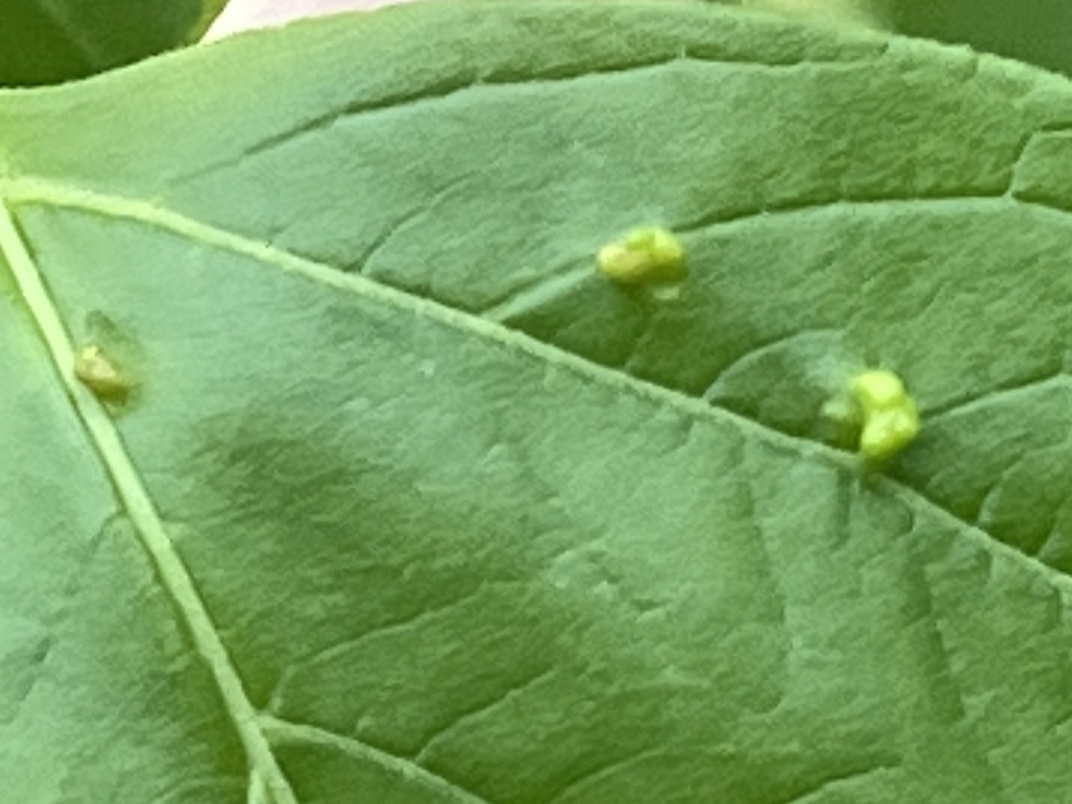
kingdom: Animalia
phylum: Arthropoda
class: Arachnida
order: Trombidiformes
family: Eriophyidae
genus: Aceria
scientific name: Aceria
